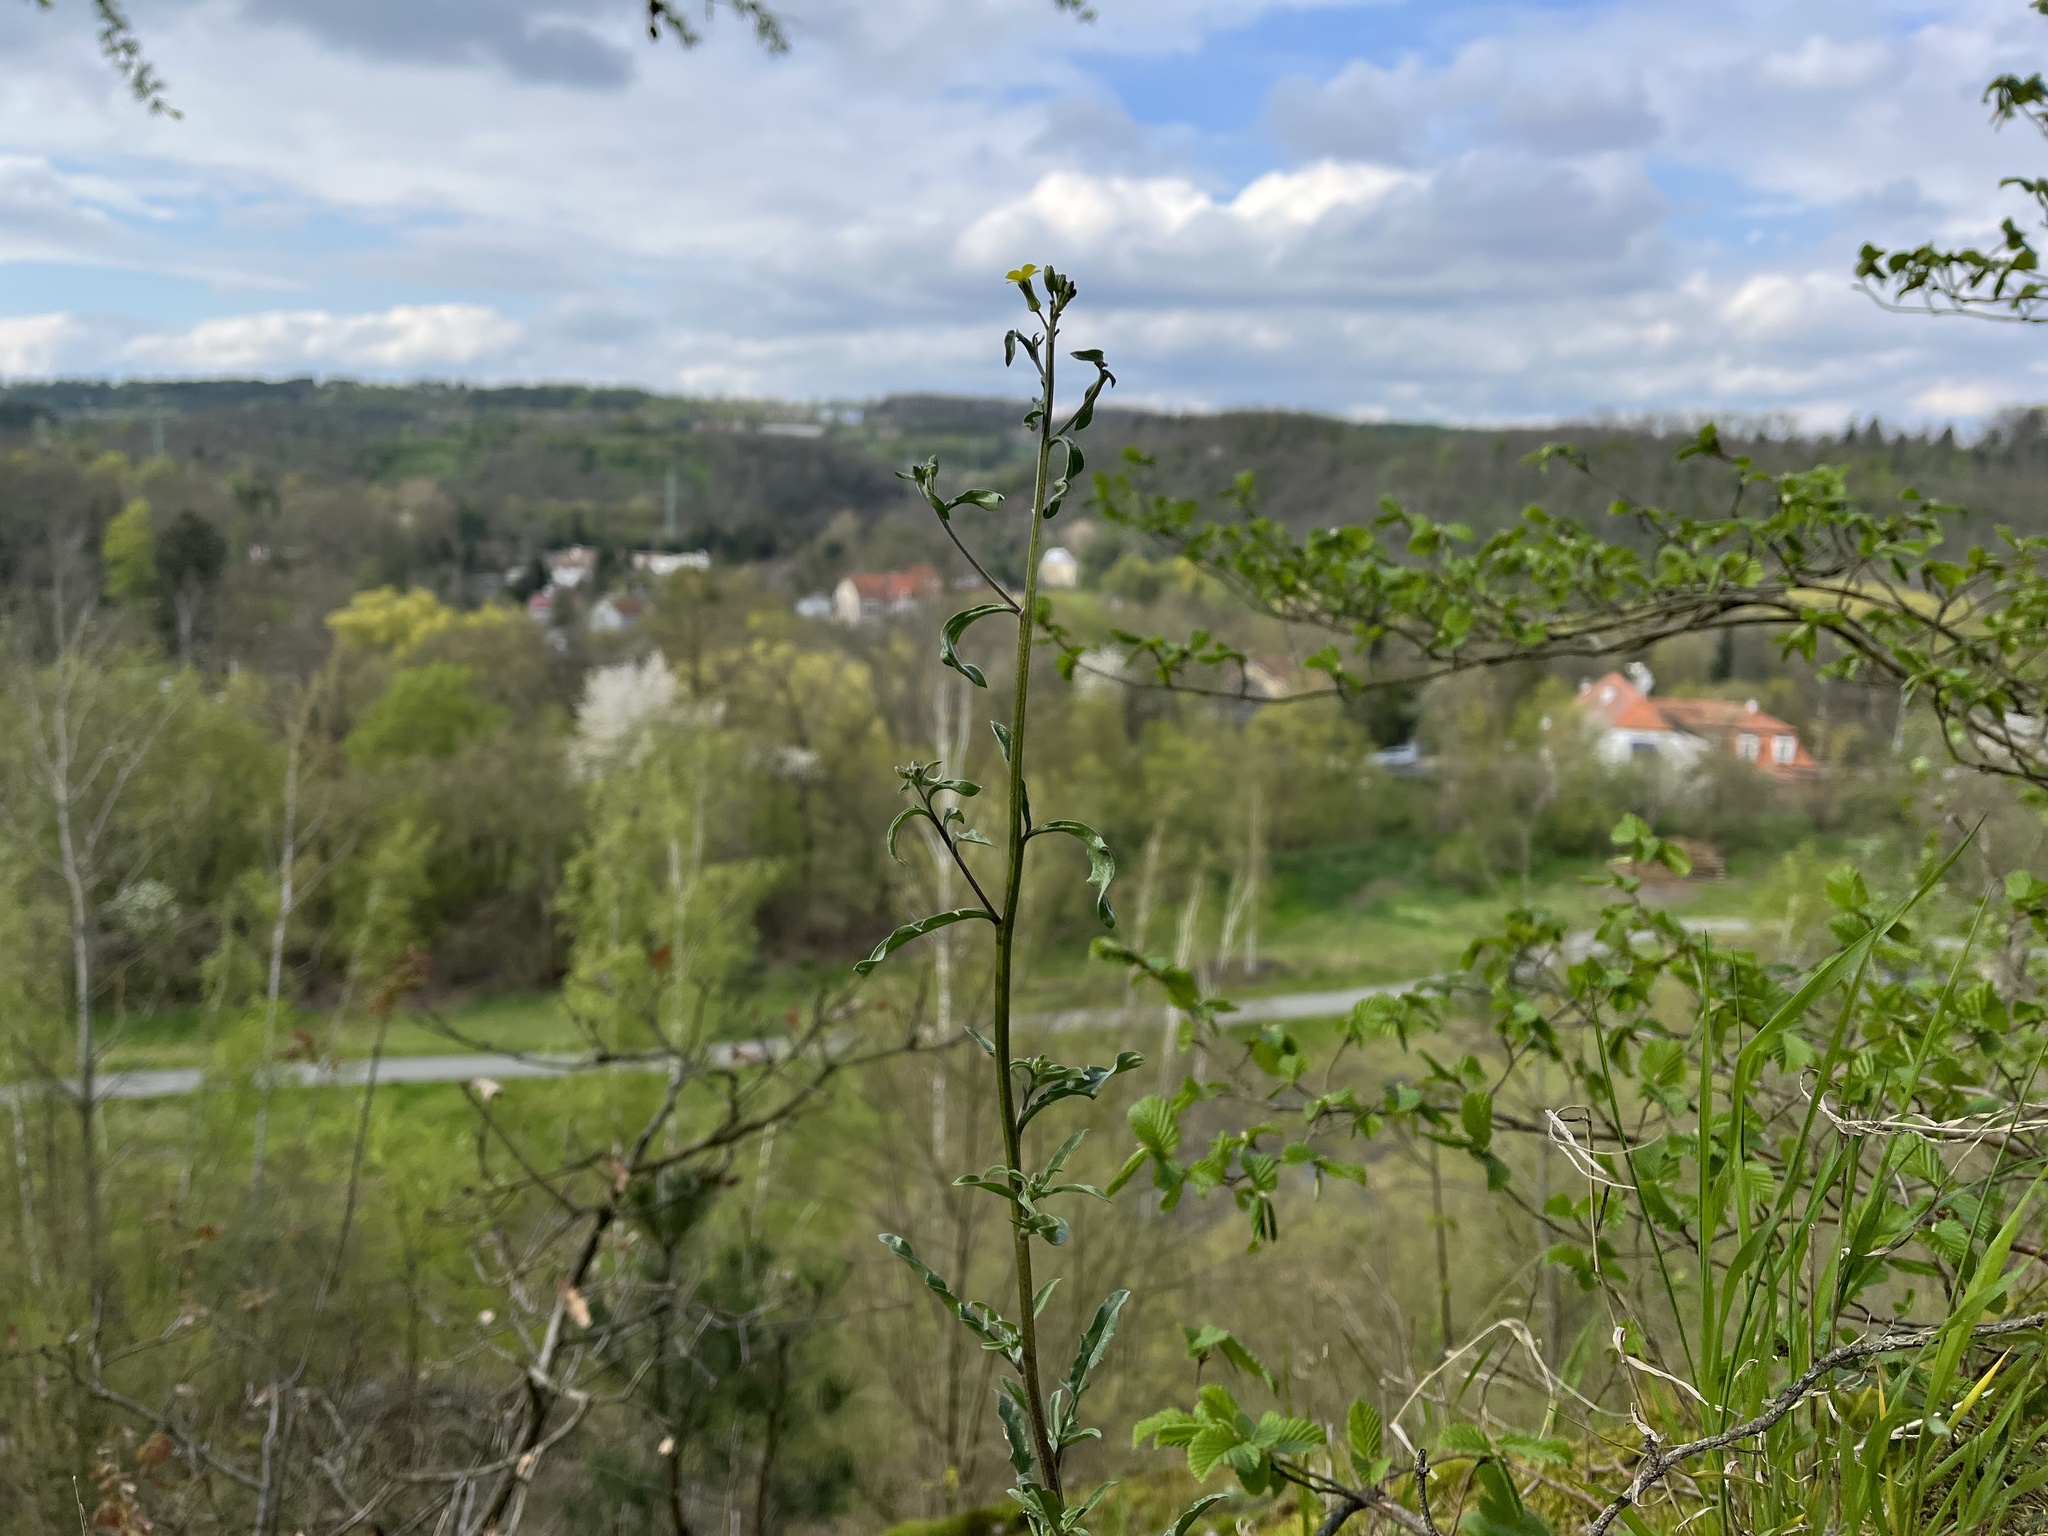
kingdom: Plantae
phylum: Tracheophyta
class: Magnoliopsida
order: Brassicales
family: Brassicaceae
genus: Erysimum
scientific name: Erysimum crepidifolium
